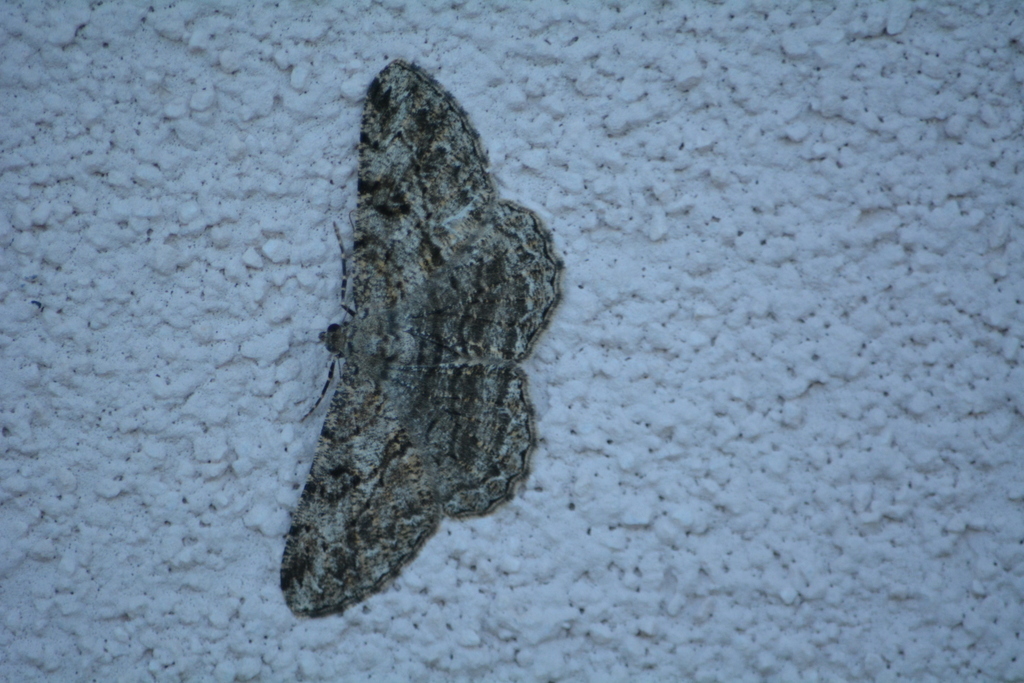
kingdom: Animalia
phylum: Arthropoda
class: Insecta
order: Lepidoptera
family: Geometridae
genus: Peribatodes
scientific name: Peribatodes rhomboidaria
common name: Willow beauty
